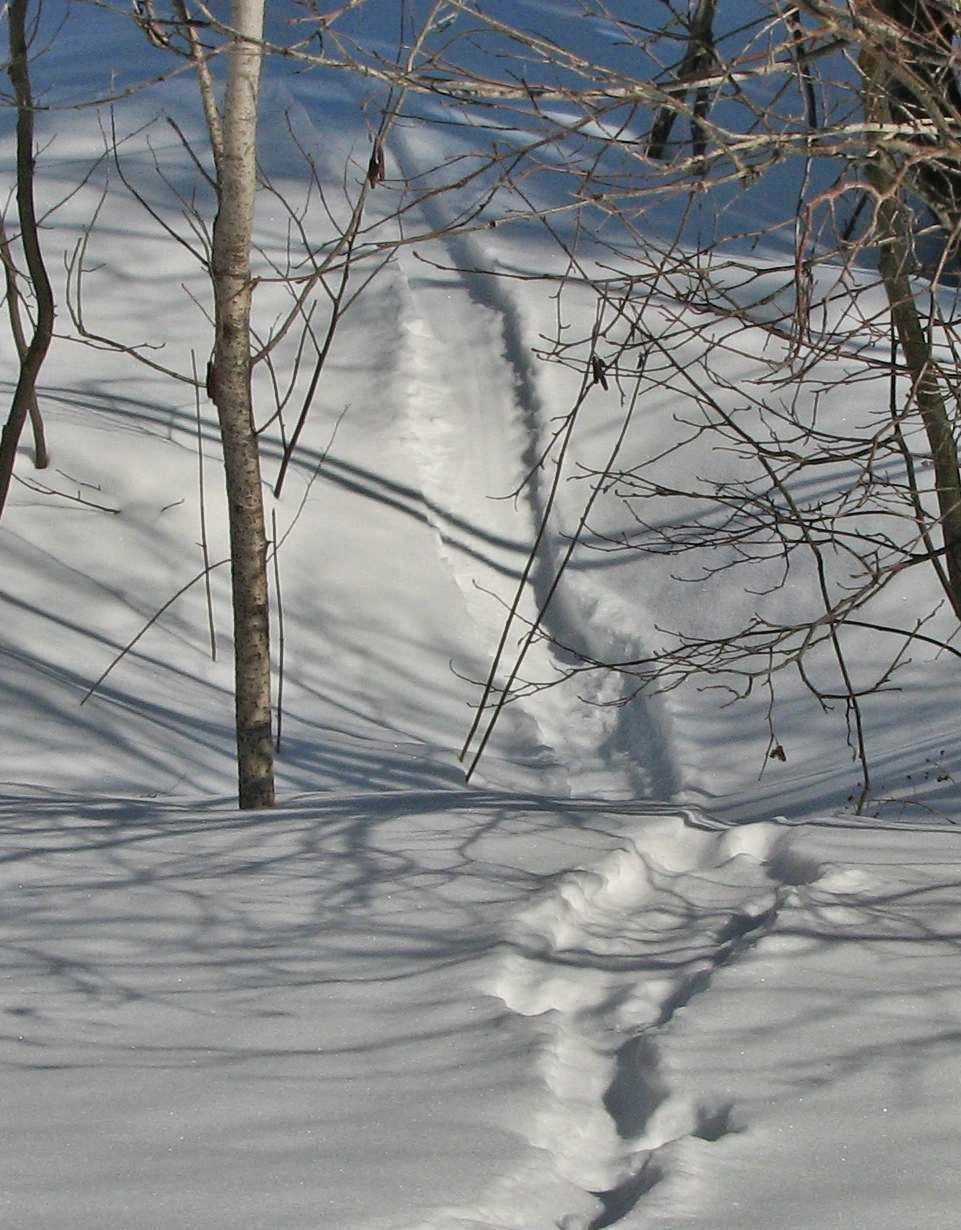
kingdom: Animalia
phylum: Chordata
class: Mammalia
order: Carnivora
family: Mustelidae
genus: Lontra
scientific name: Lontra canadensis
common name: North american river otter
